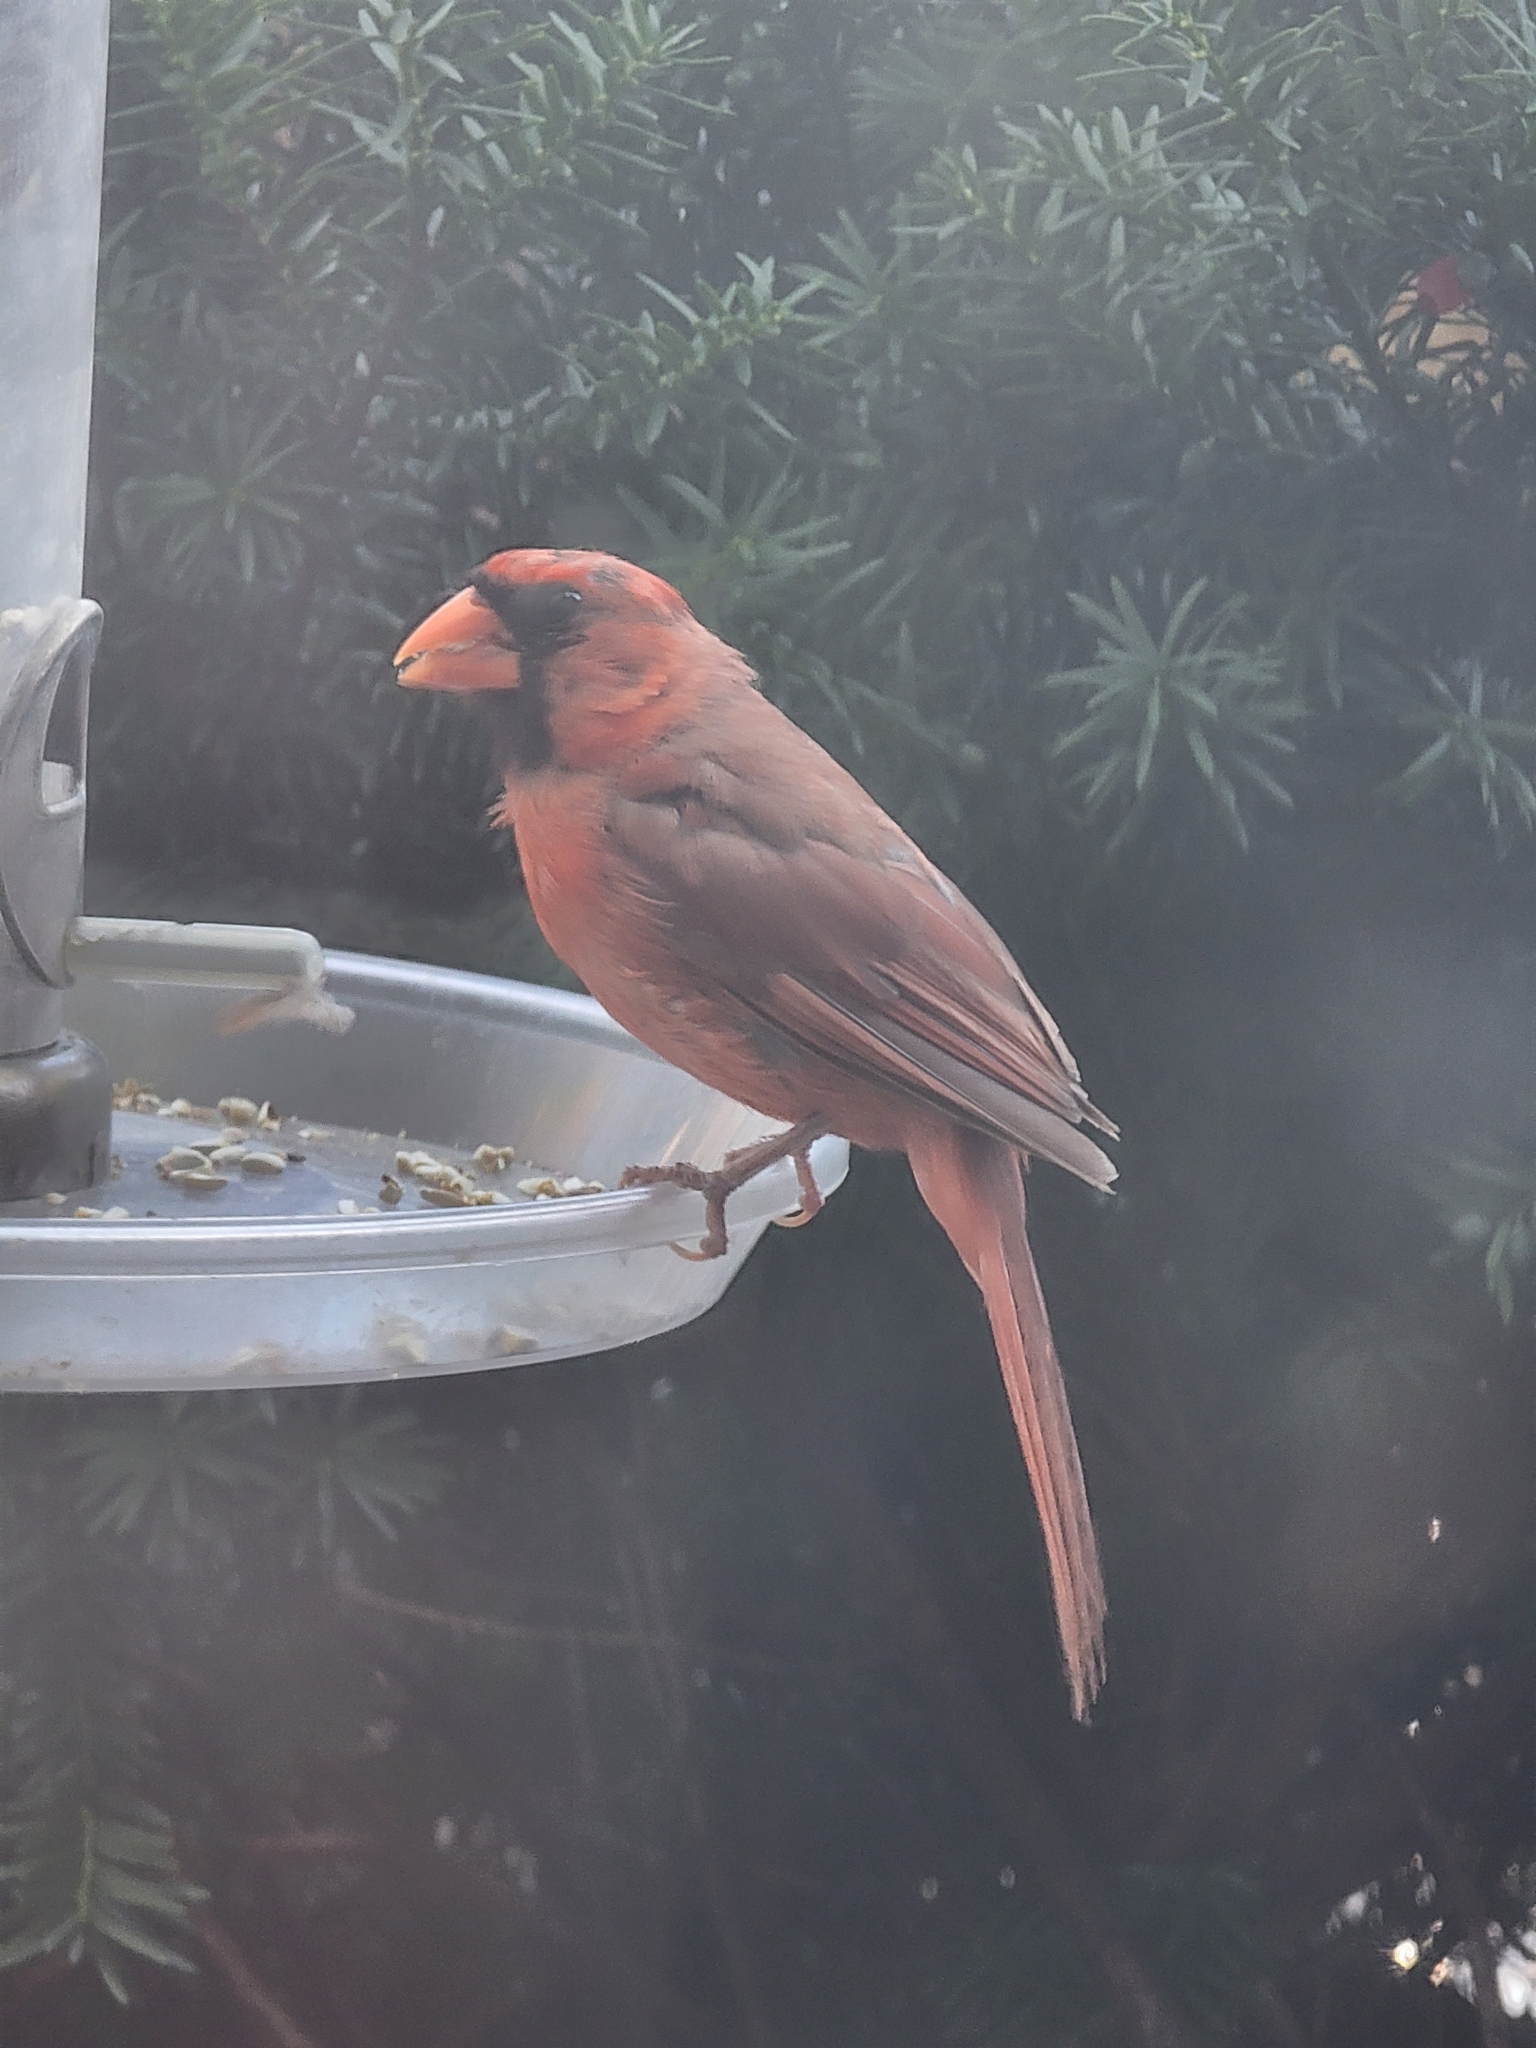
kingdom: Animalia
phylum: Chordata
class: Aves
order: Passeriformes
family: Cardinalidae
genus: Cardinalis
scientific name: Cardinalis cardinalis
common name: Northern cardinal
